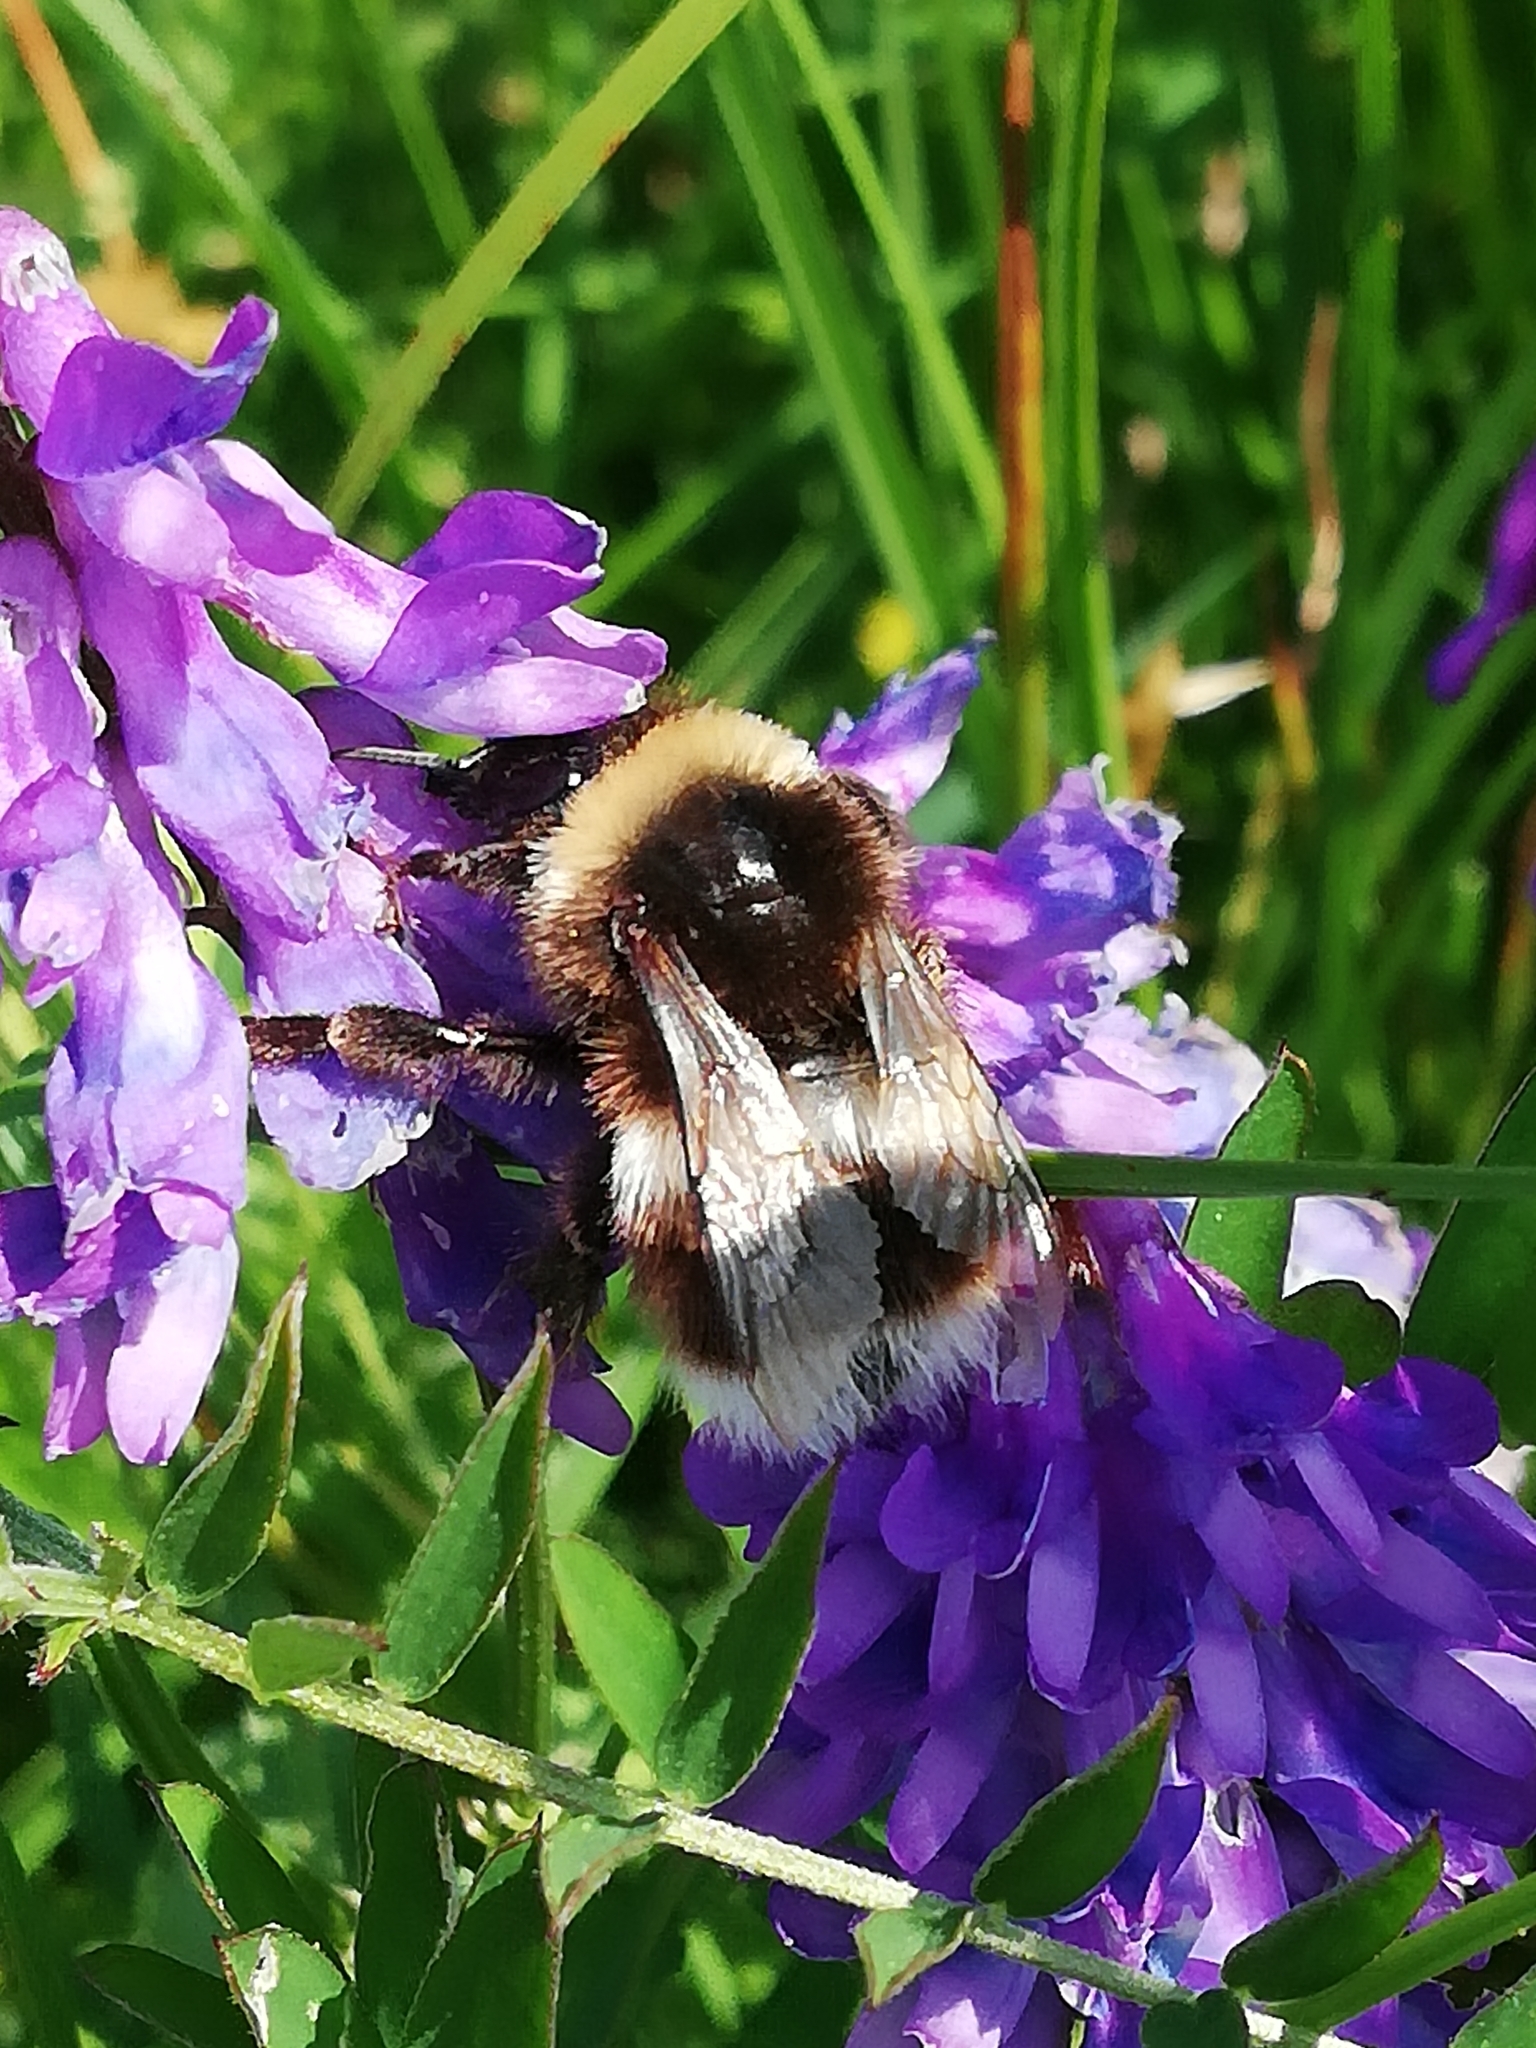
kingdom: Animalia
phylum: Arthropoda
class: Insecta
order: Hymenoptera
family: Apidae
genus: Bombus
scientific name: Bombus lucorum
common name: White-tailed bumblebee
